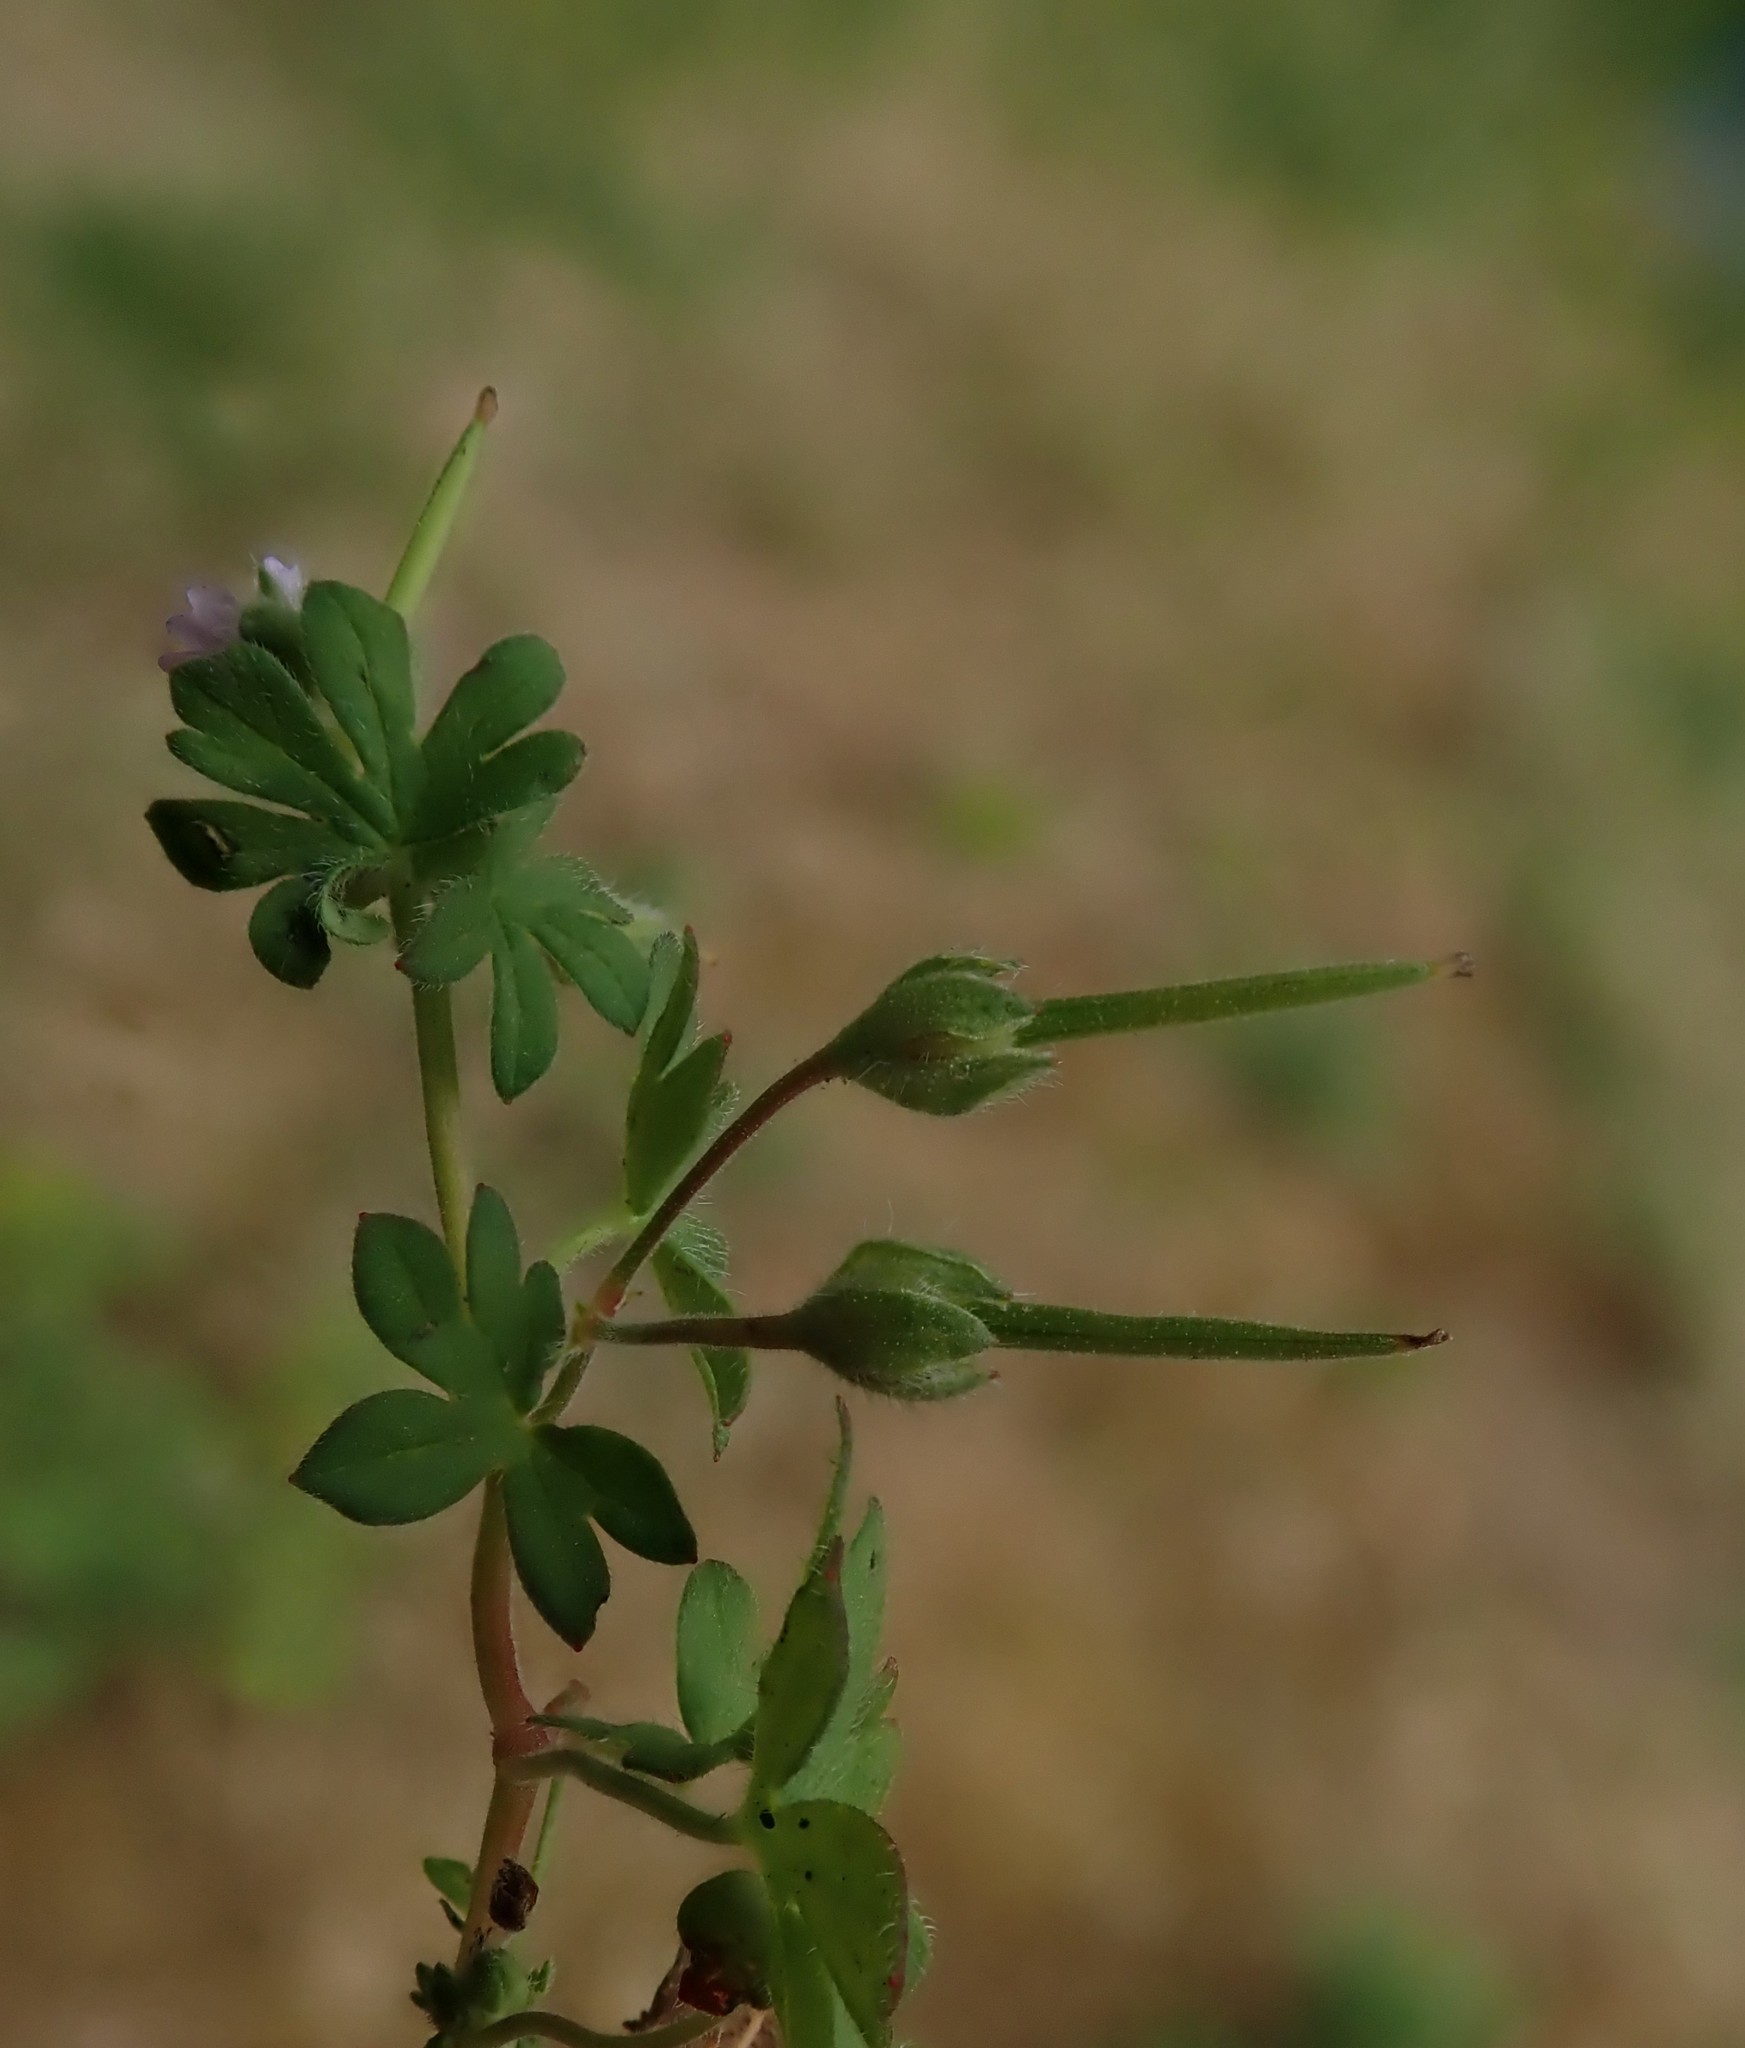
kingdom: Plantae
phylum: Tracheophyta
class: Magnoliopsida
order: Geraniales
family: Geraniaceae
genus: Geranium
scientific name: Geranium pusillum
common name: Small geranium
